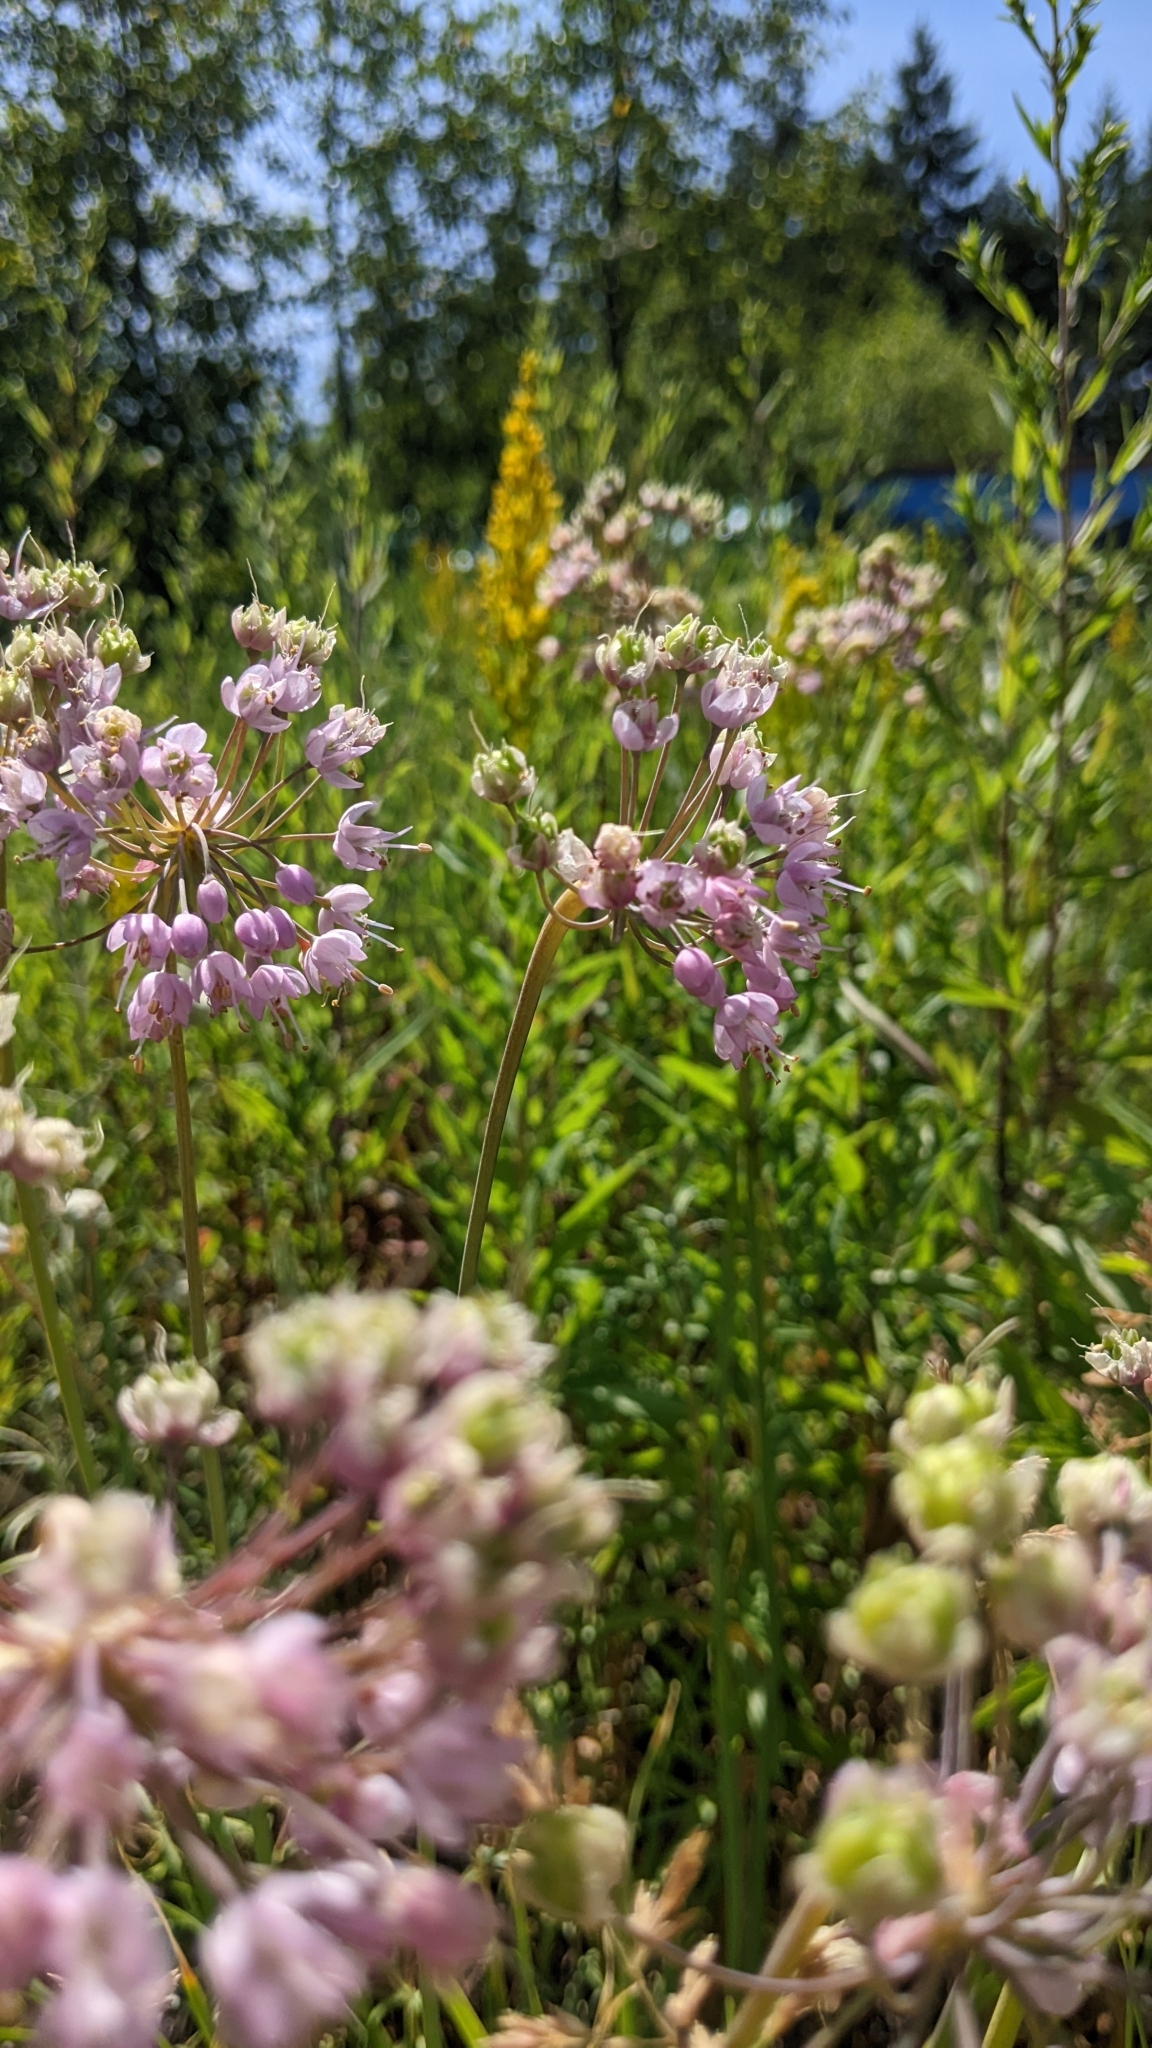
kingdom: Plantae
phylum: Tracheophyta
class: Liliopsida
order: Asparagales
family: Amaryllidaceae
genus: Allium
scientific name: Allium cernuum
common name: Nodding onion
